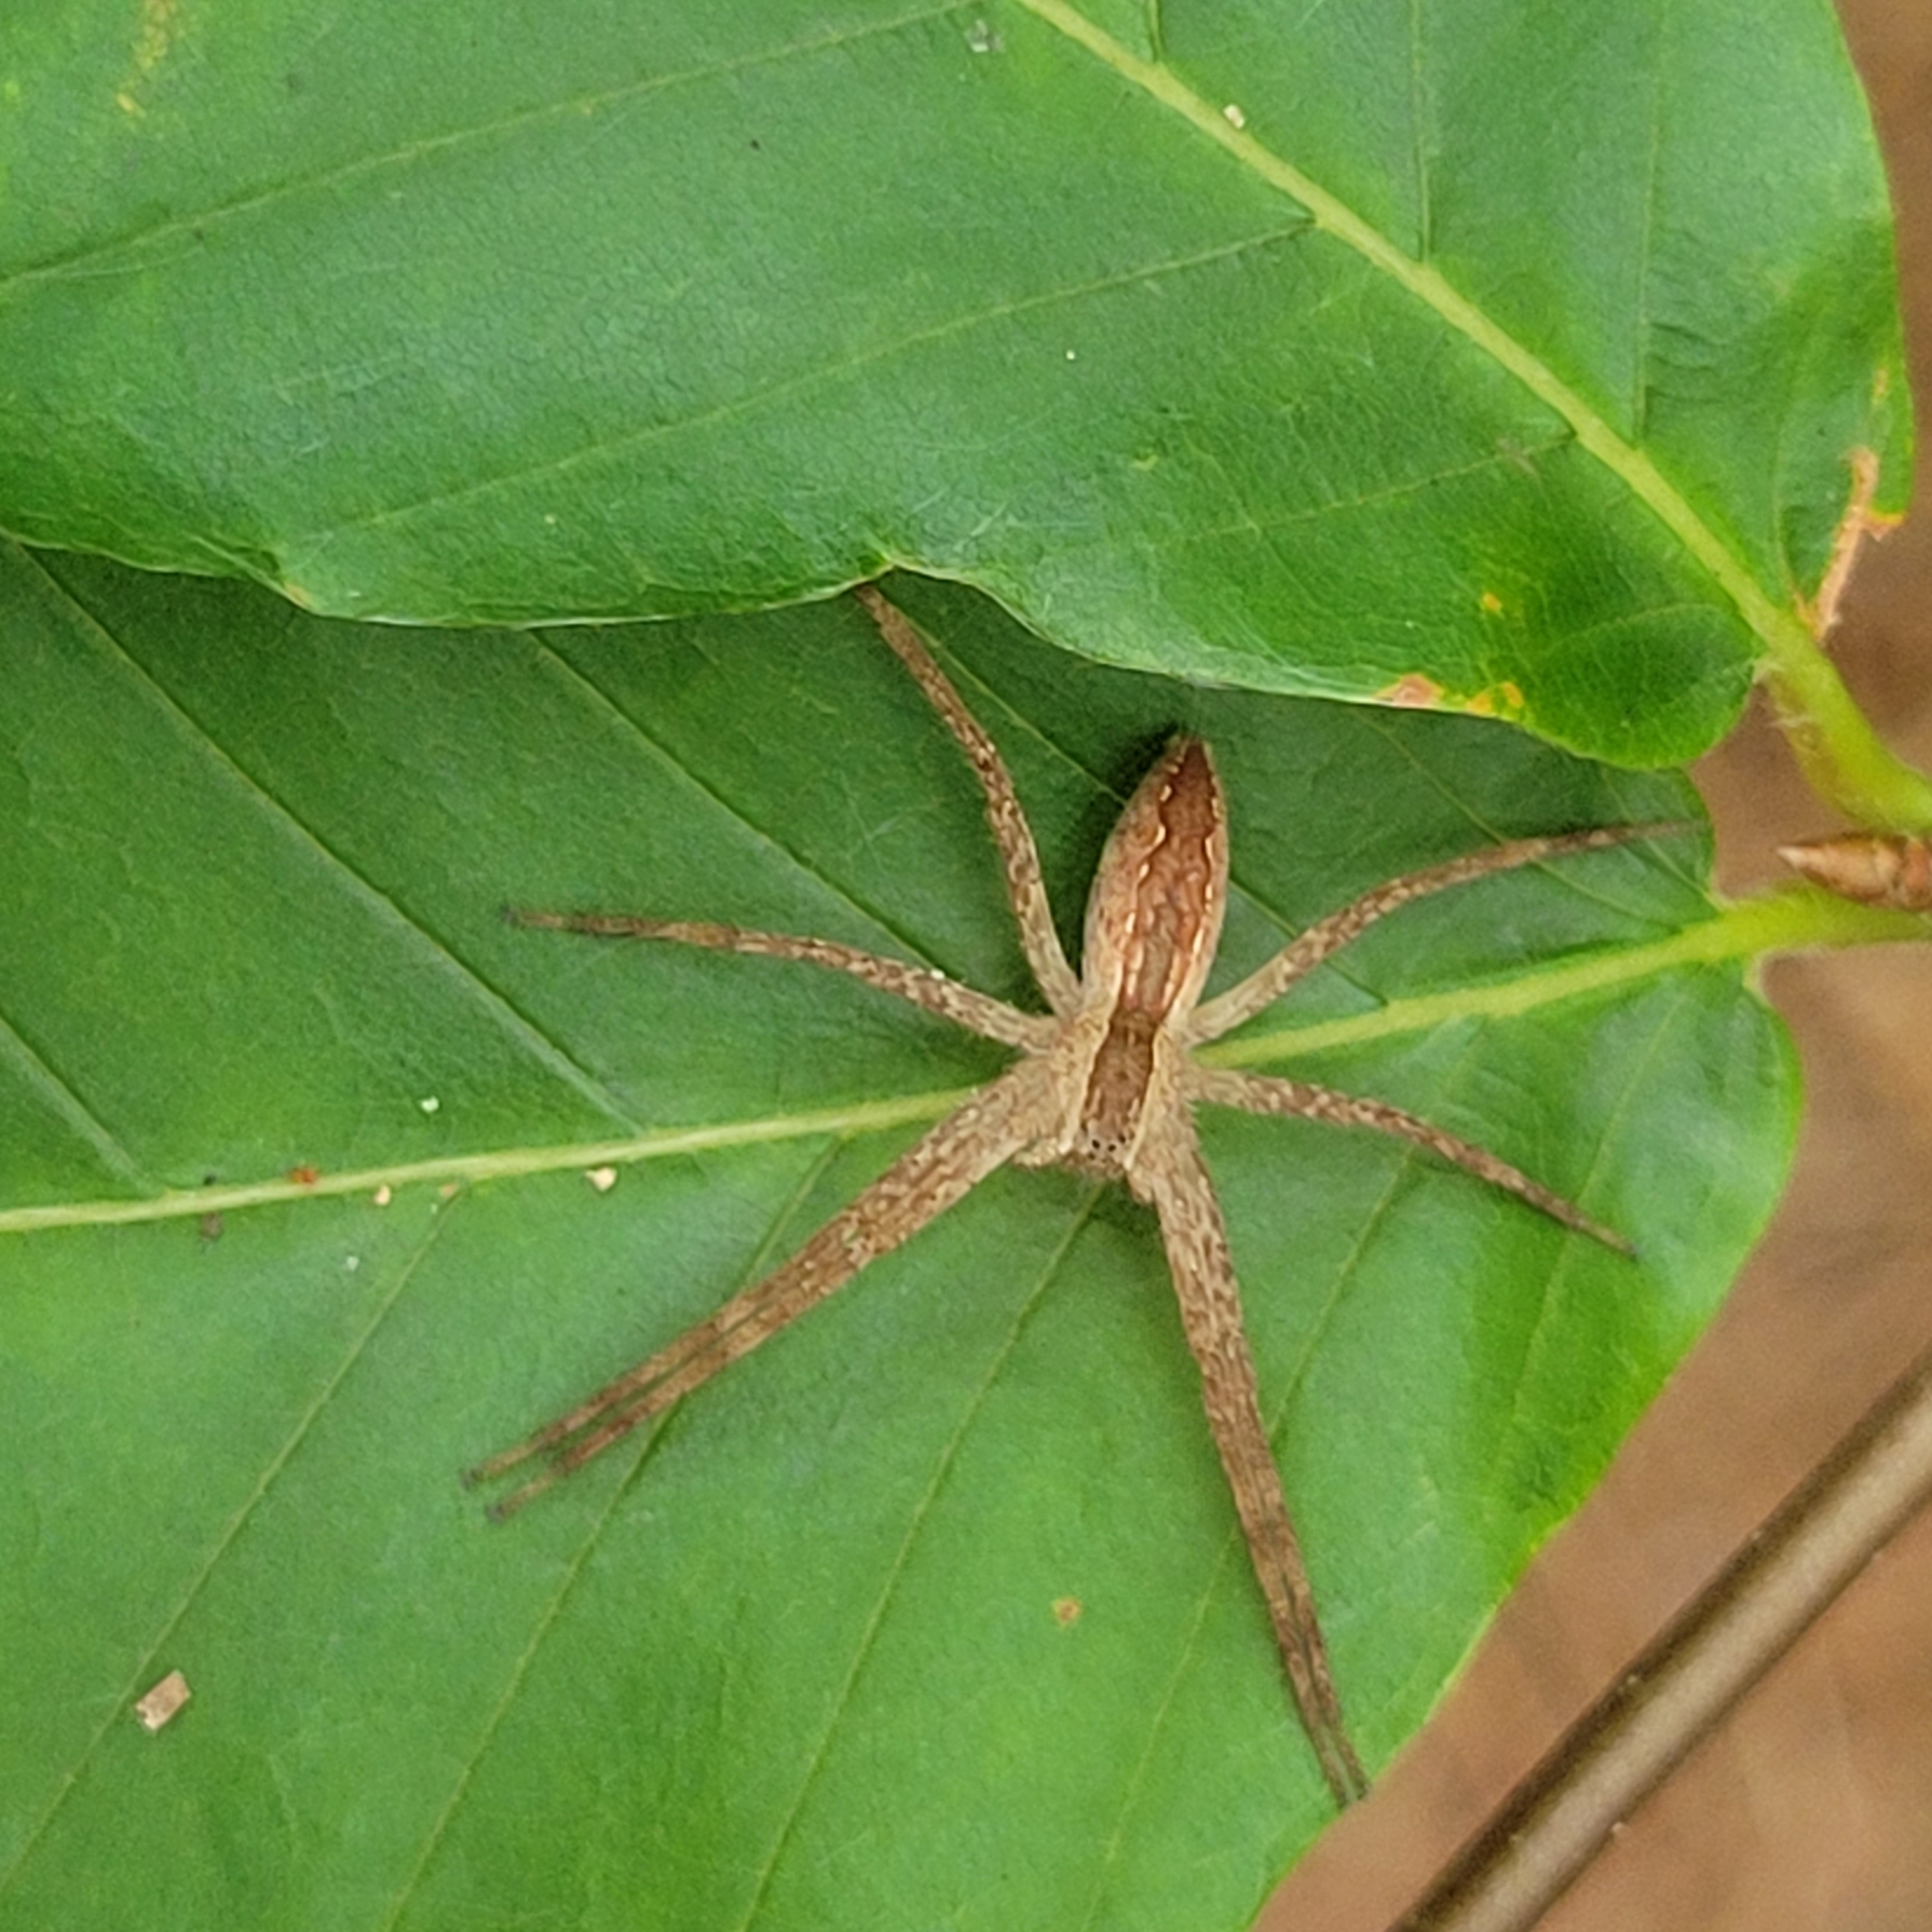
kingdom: Animalia
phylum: Arthropoda
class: Arachnida
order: Araneae
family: Pisauridae
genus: Pisaurina
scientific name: Pisaurina mira
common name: American nursery web spider
